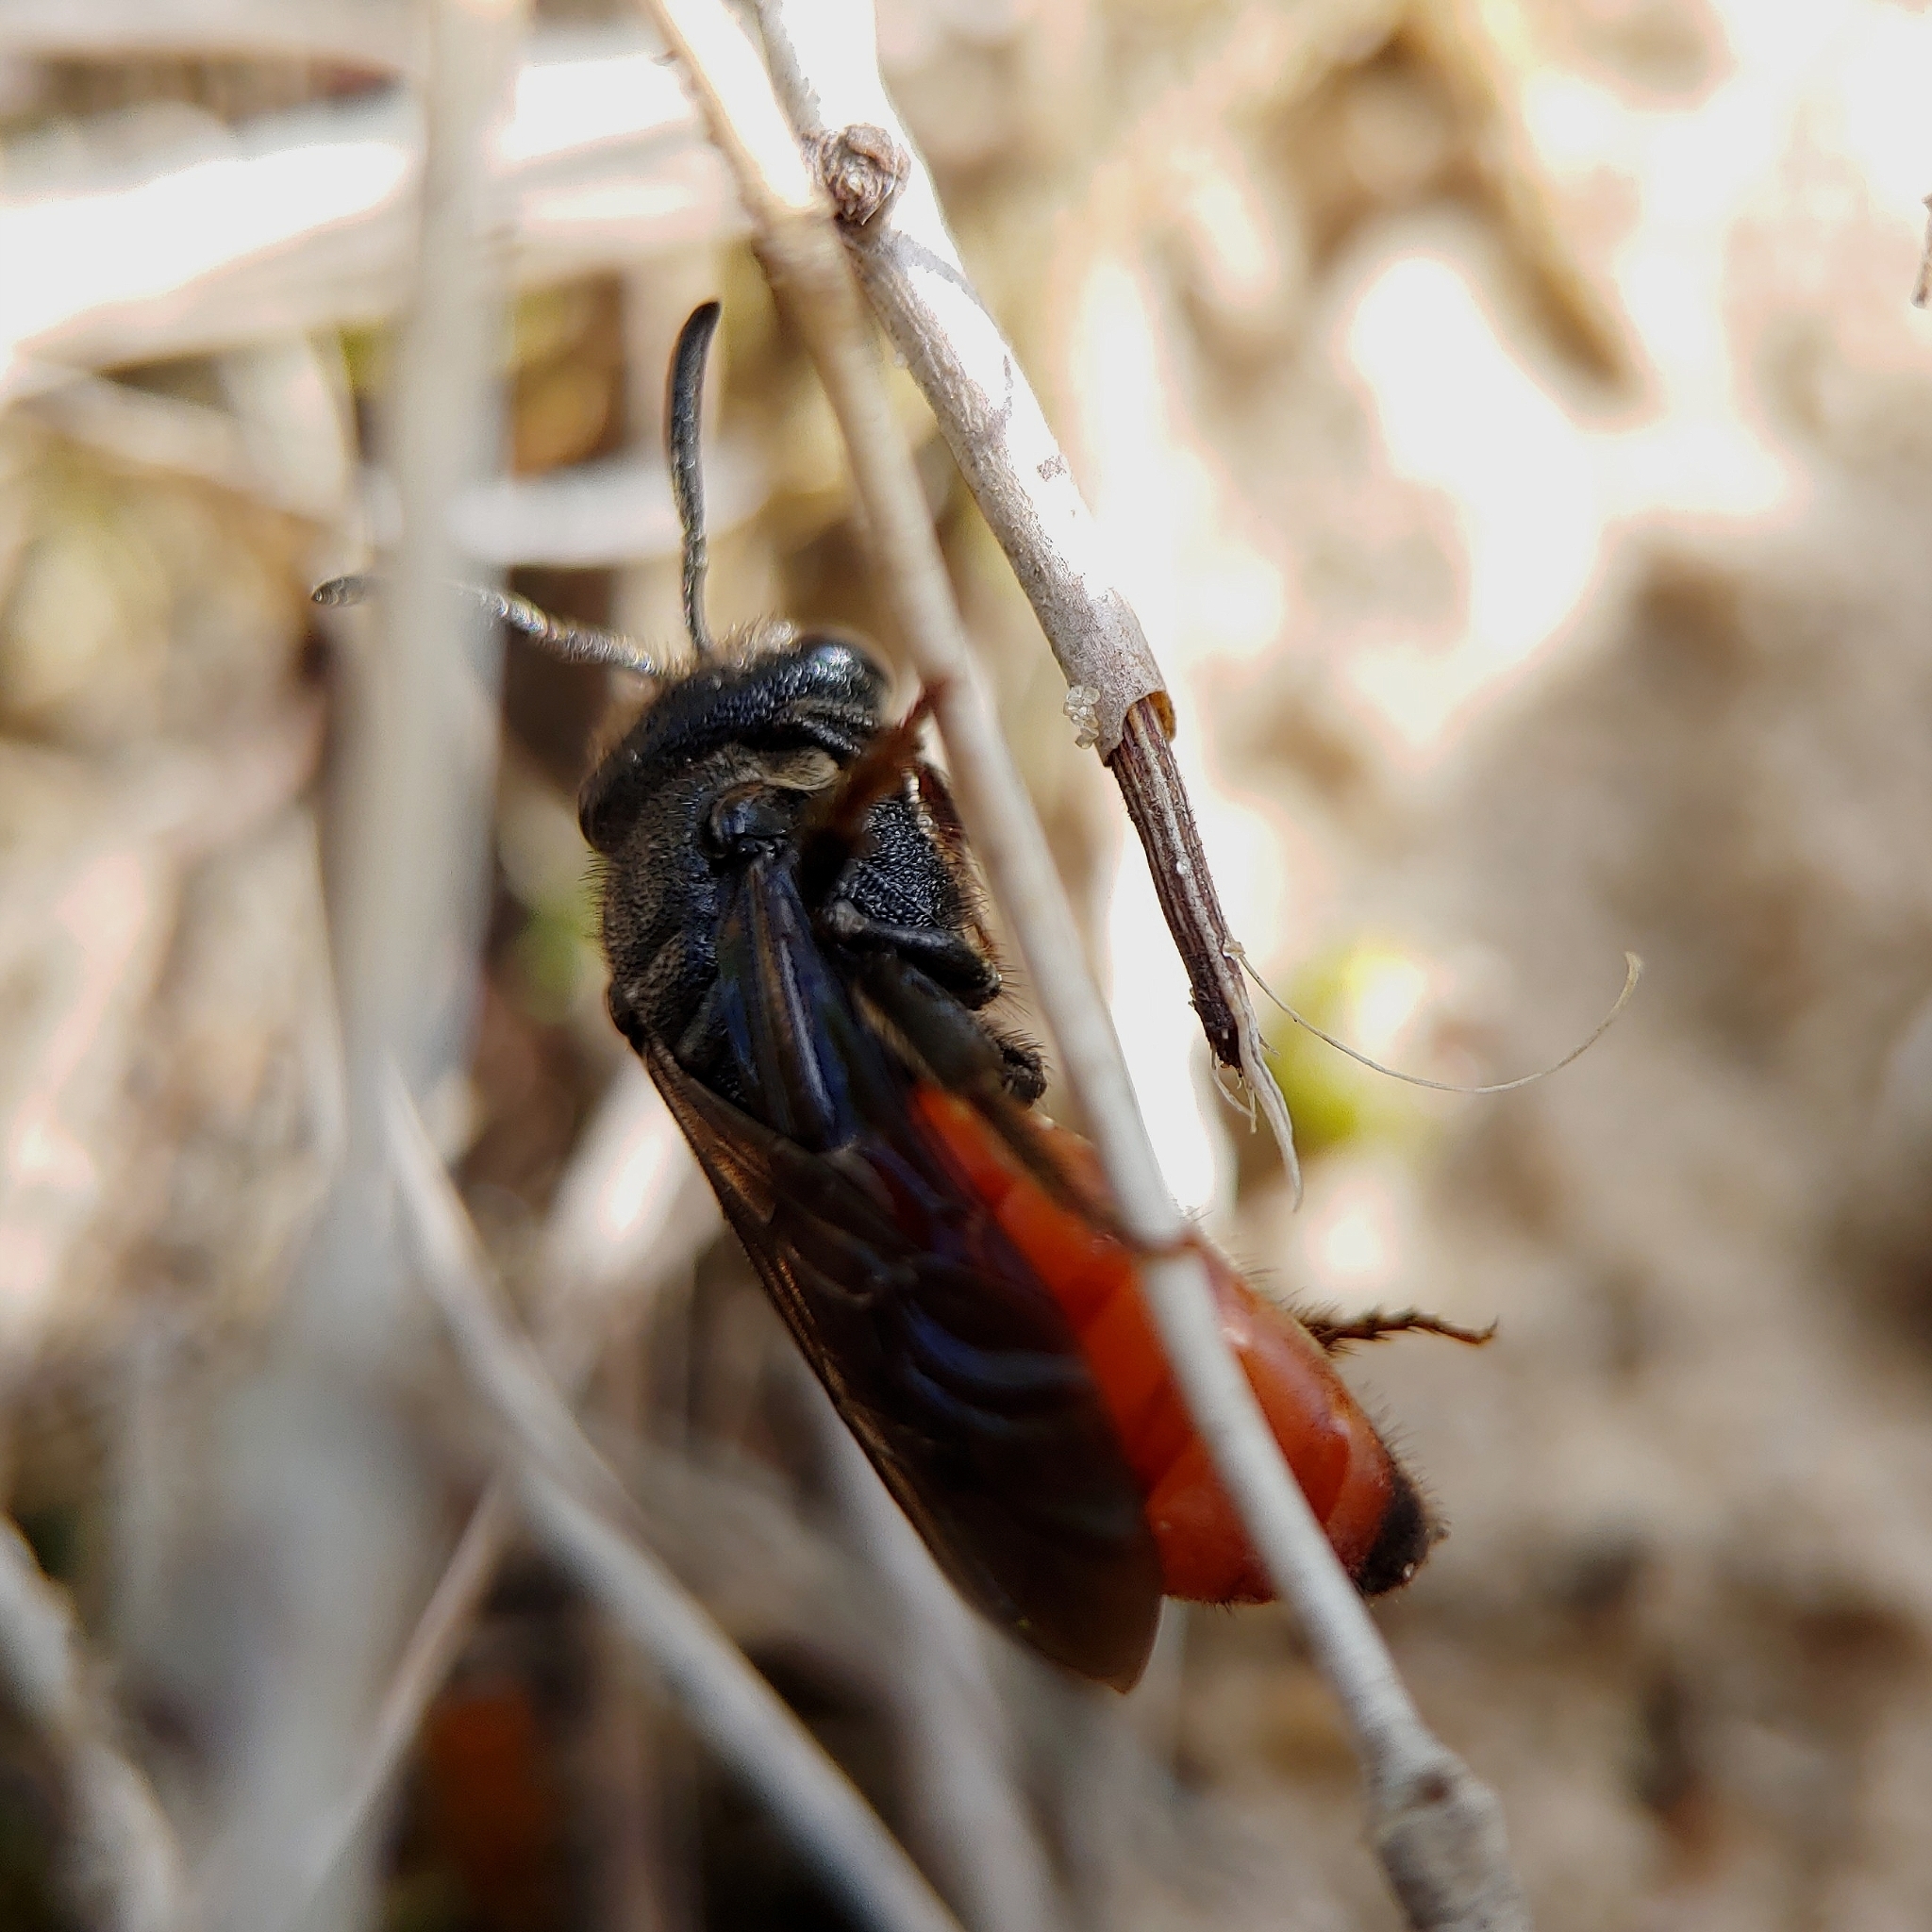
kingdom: Animalia
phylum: Arthropoda
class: Insecta
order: Hymenoptera
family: Halictidae
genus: Sphecodes
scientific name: Sphecodes albilabris
